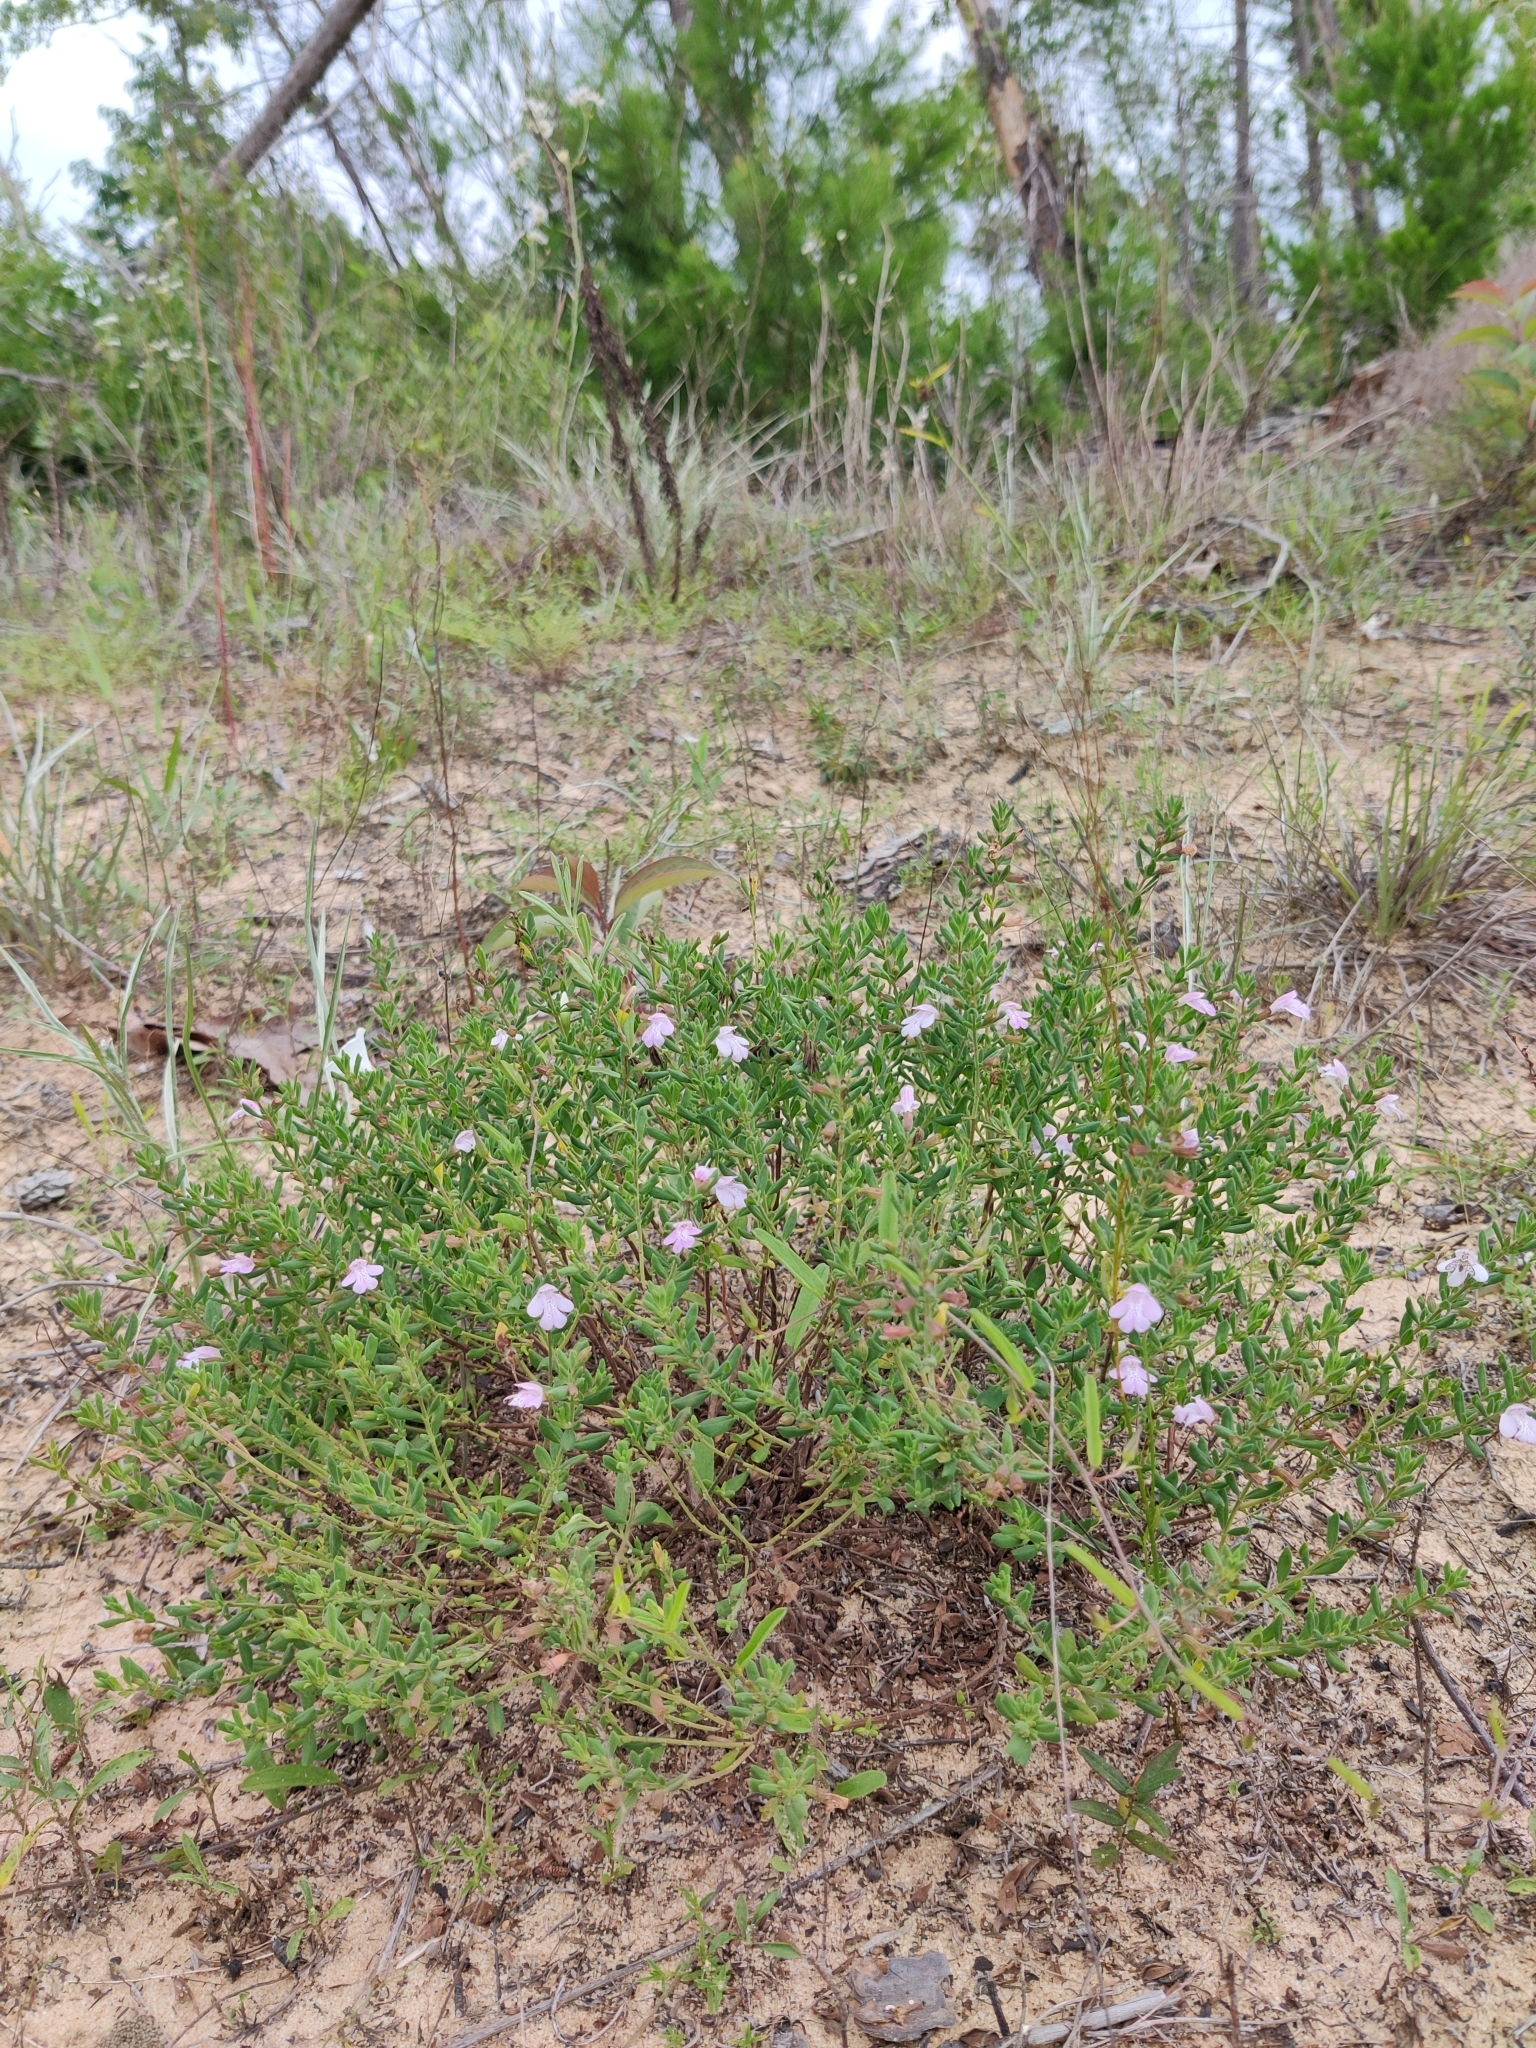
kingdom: Plantae
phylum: Tracheophyta
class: Magnoliopsida
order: Lamiales
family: Lamiaceae
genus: Clinopodium
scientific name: Clinopodium dentatum
